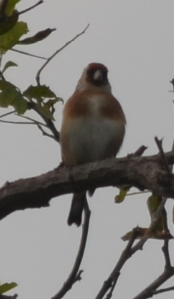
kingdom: Animalia
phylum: Chordata
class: Aves
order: Passeriformes
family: Fringillidae
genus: Carduelis
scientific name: Carduelis carduelis
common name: European goldfinch
